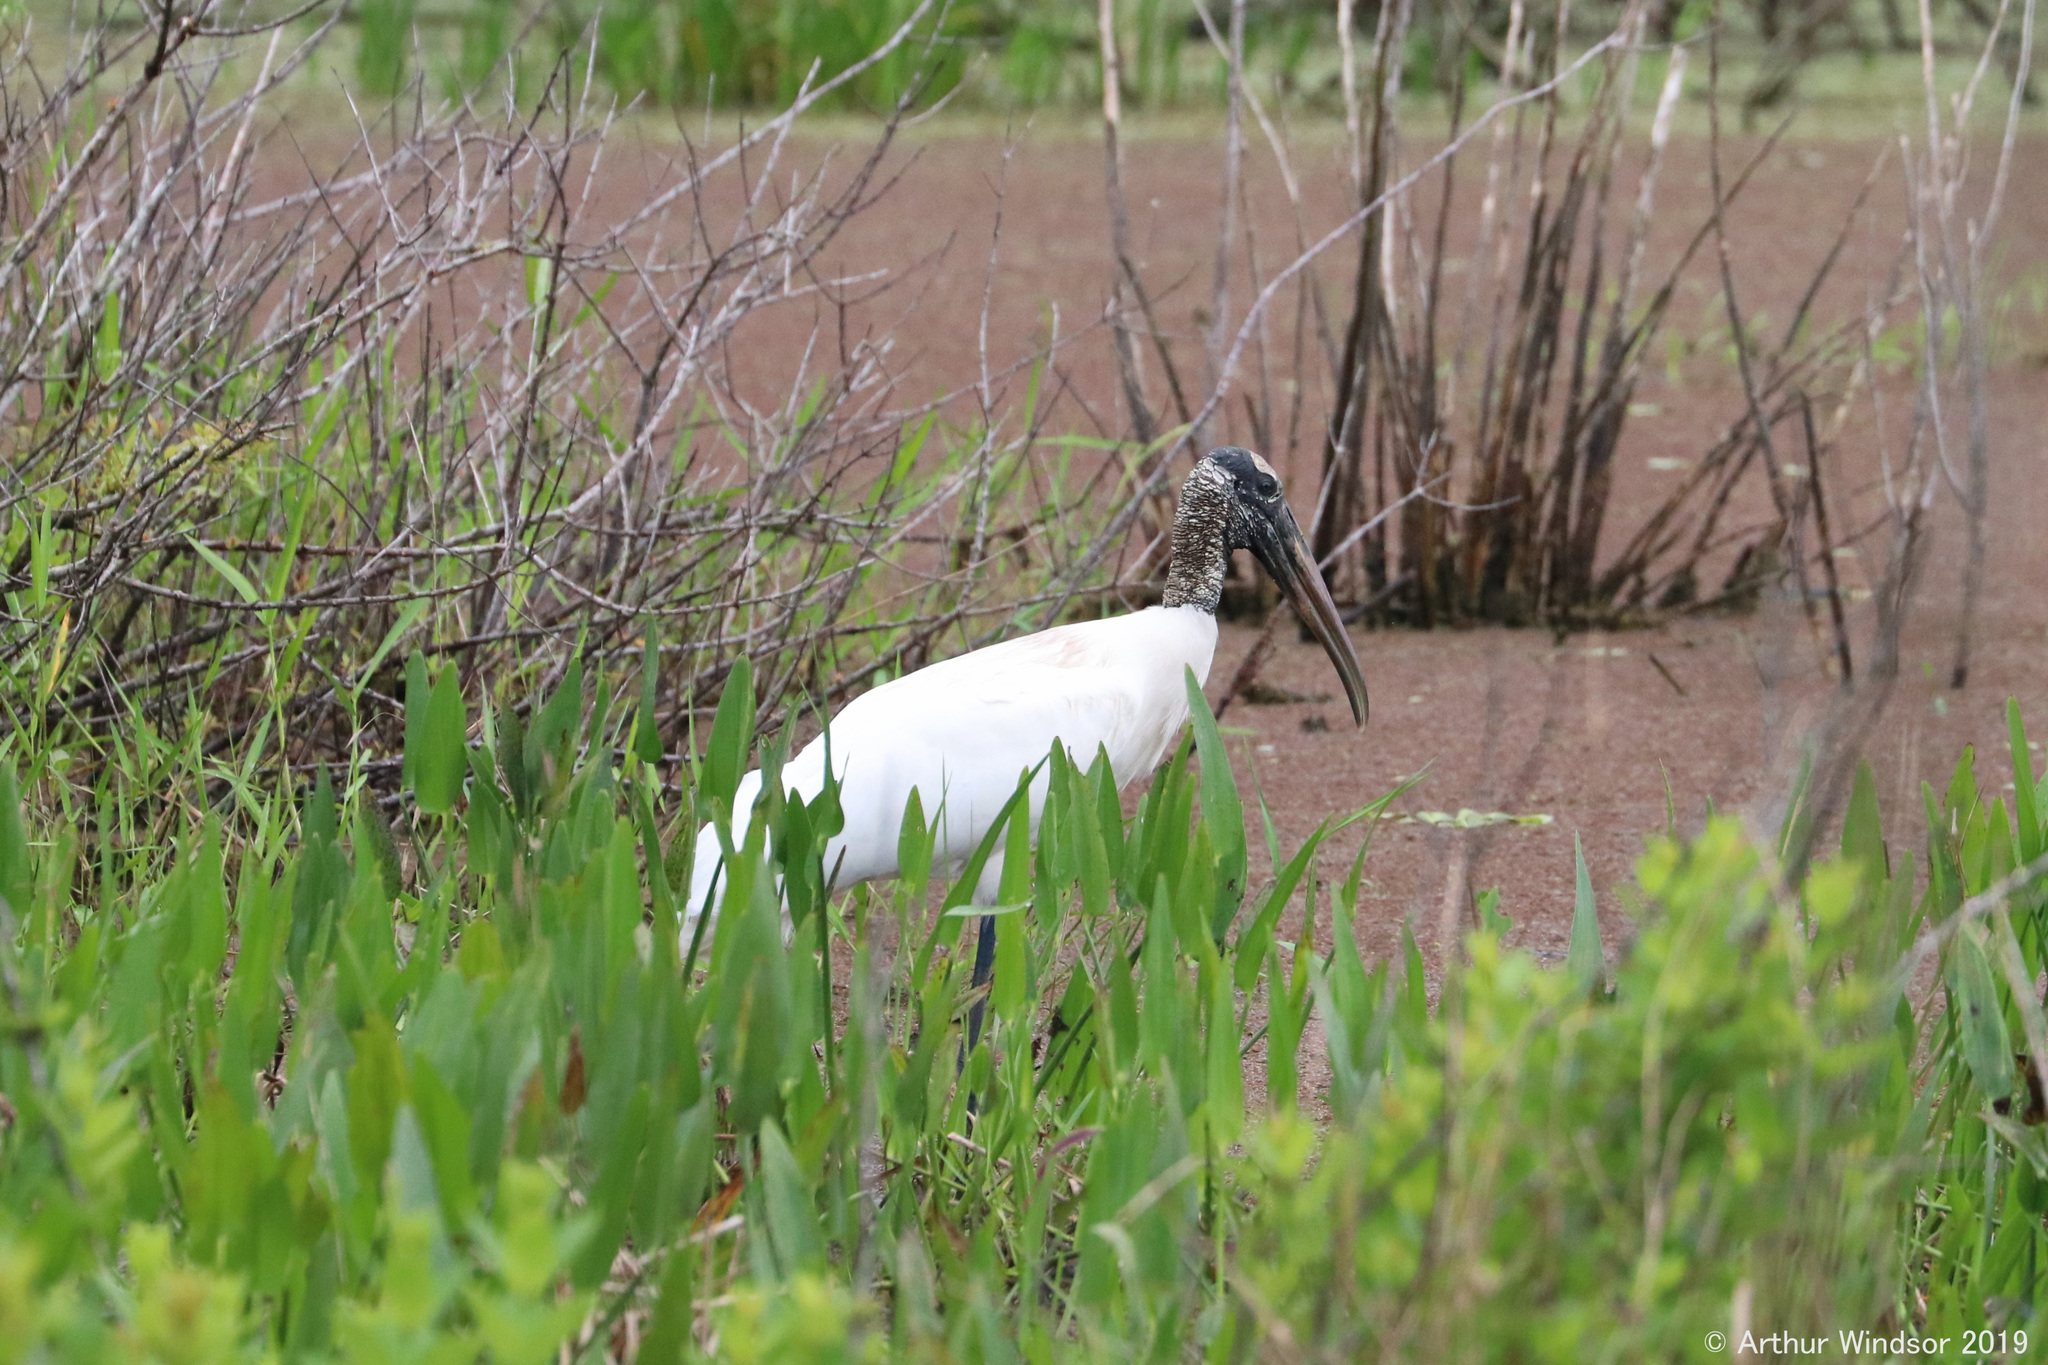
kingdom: Animalia
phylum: Chordata
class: Aves
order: Ciconiiformes
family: Ciconiidae
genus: Mycteria
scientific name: Mycteria americana
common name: Wood stork
